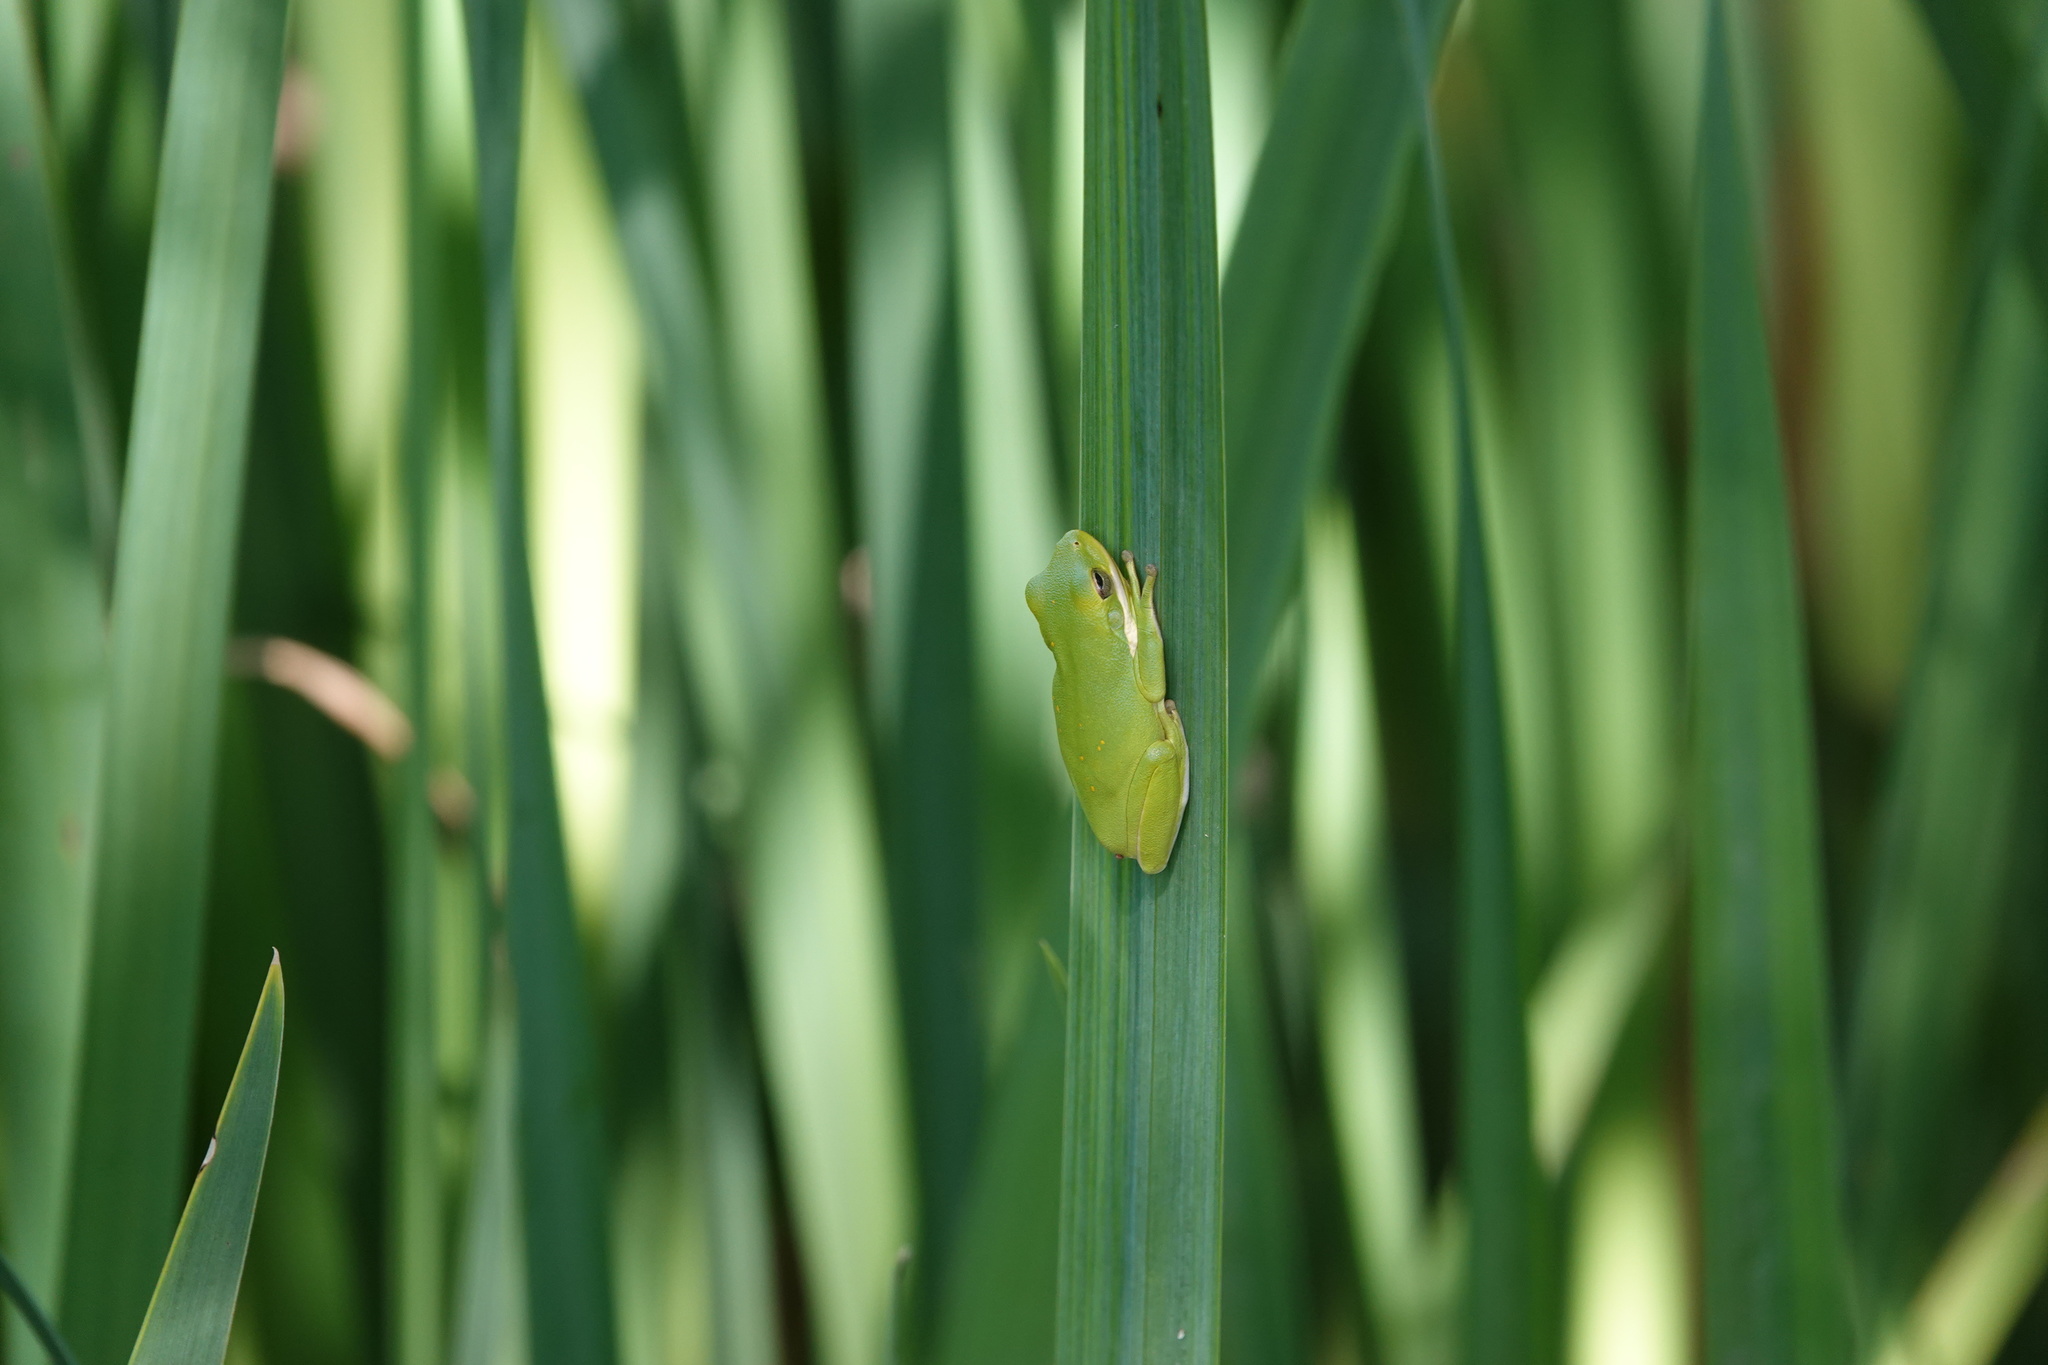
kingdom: Animalia
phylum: Chordata
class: Amphibia
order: Anura
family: Hylidae
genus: Dryophytes
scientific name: Dryophytes cinereus
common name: Green treefrog
